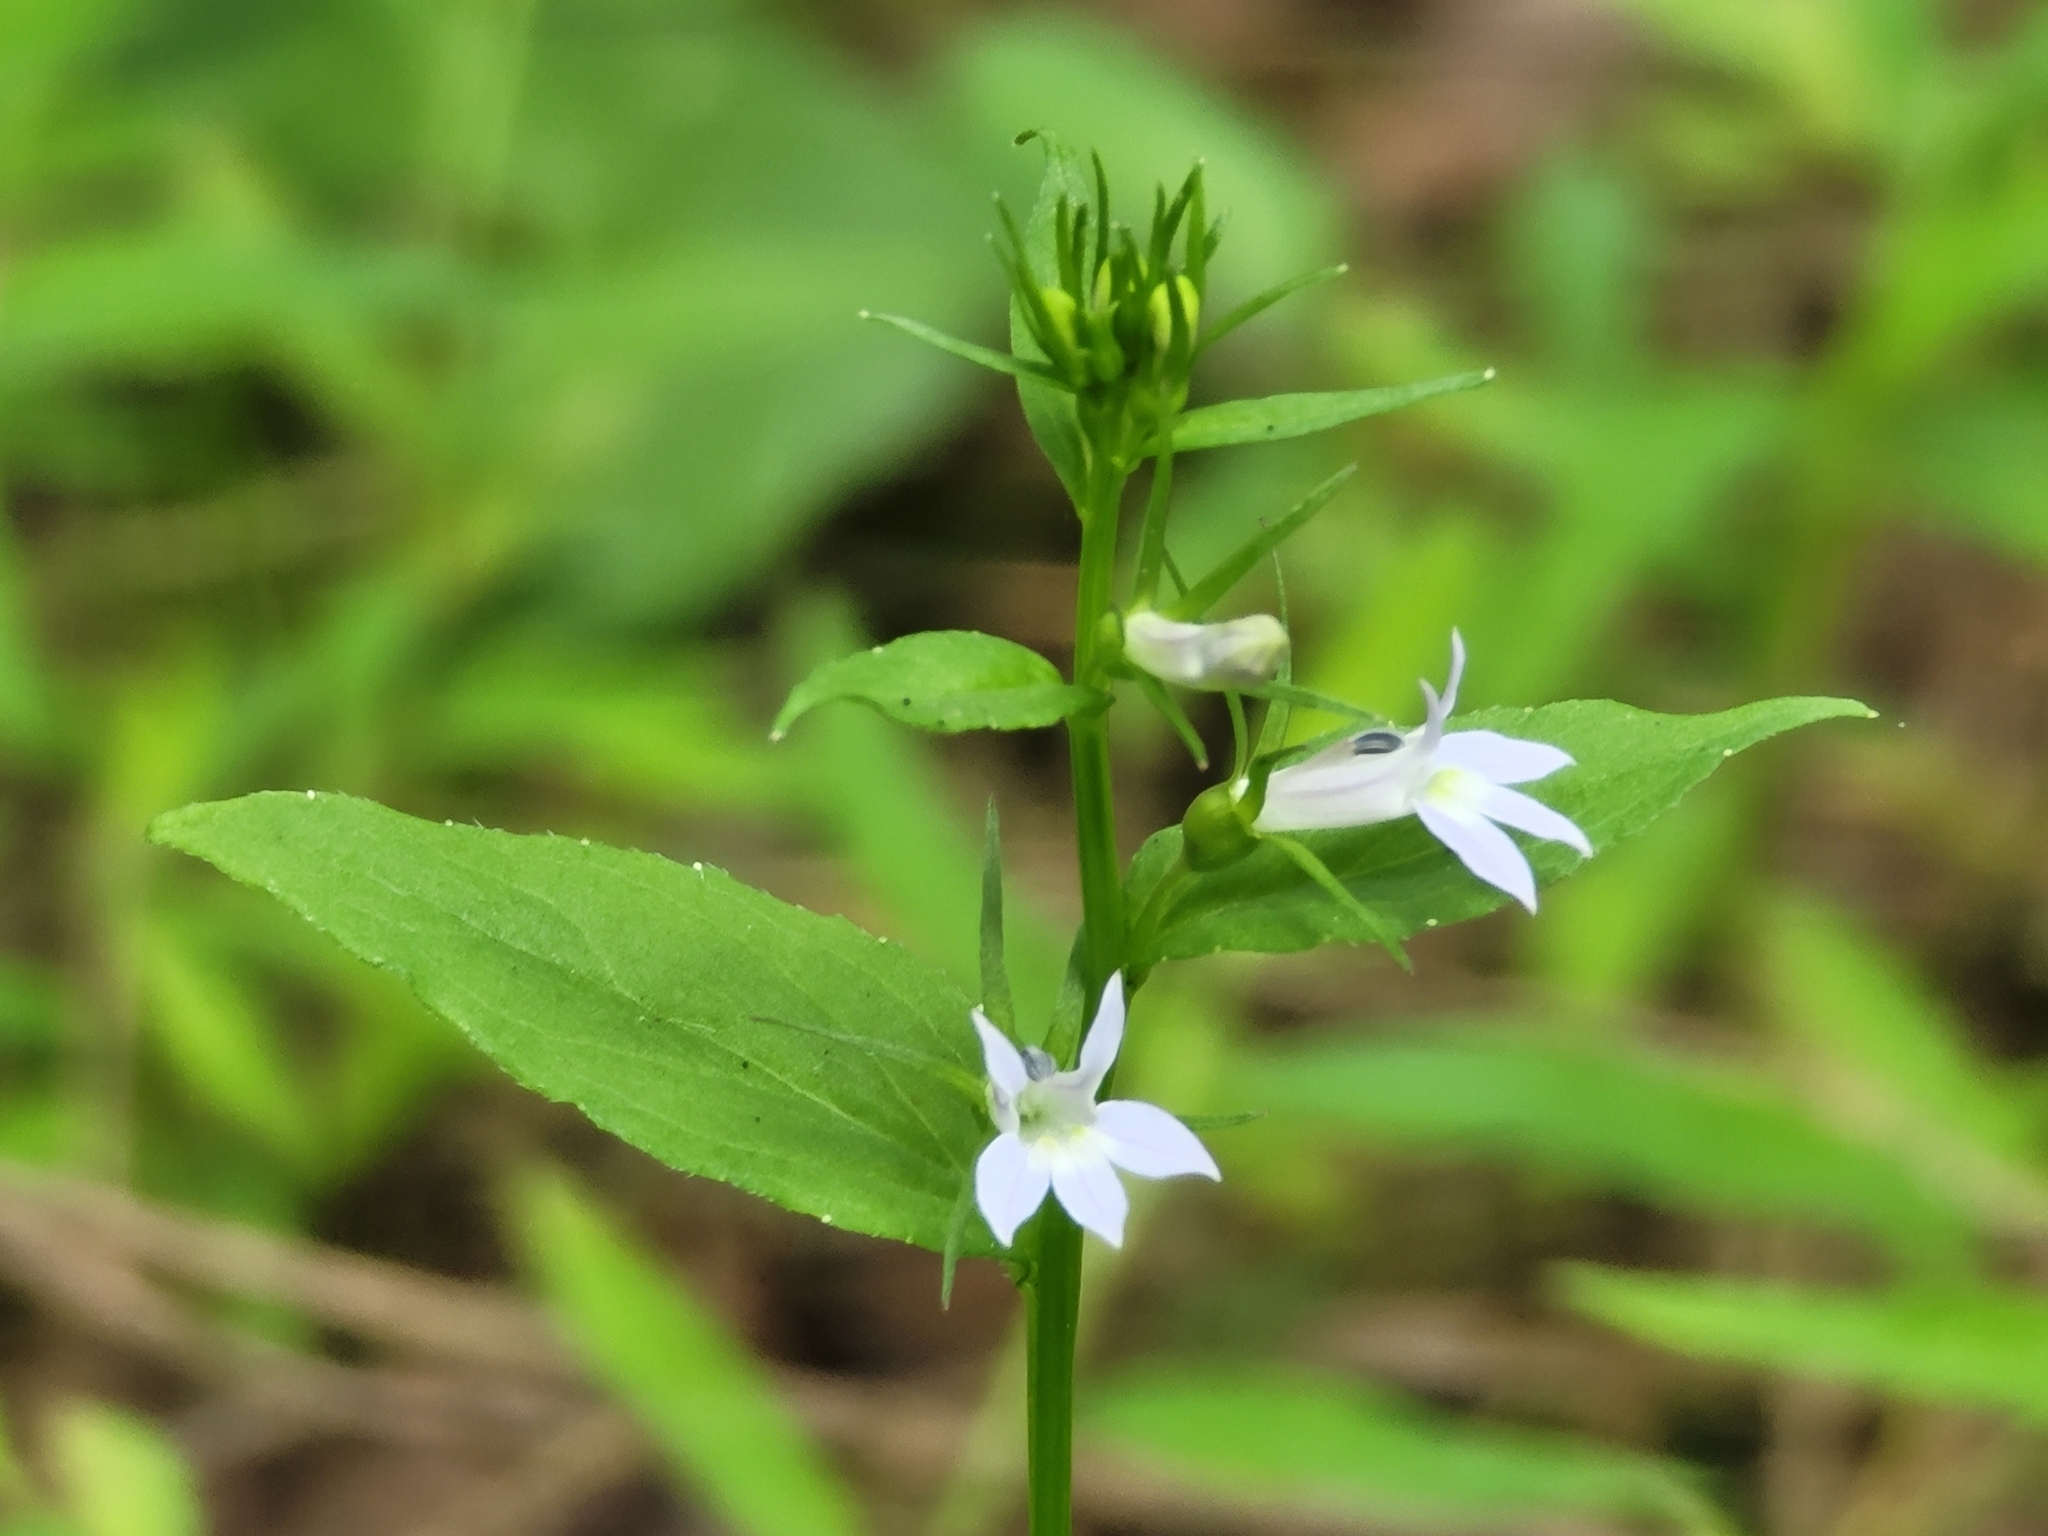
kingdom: Plantae
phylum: Tracheophyta
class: Magnoliopsida
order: Asterales
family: Campanulaceae
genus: Lobelia
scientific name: Lobelia inflata
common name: Indian tobacco
